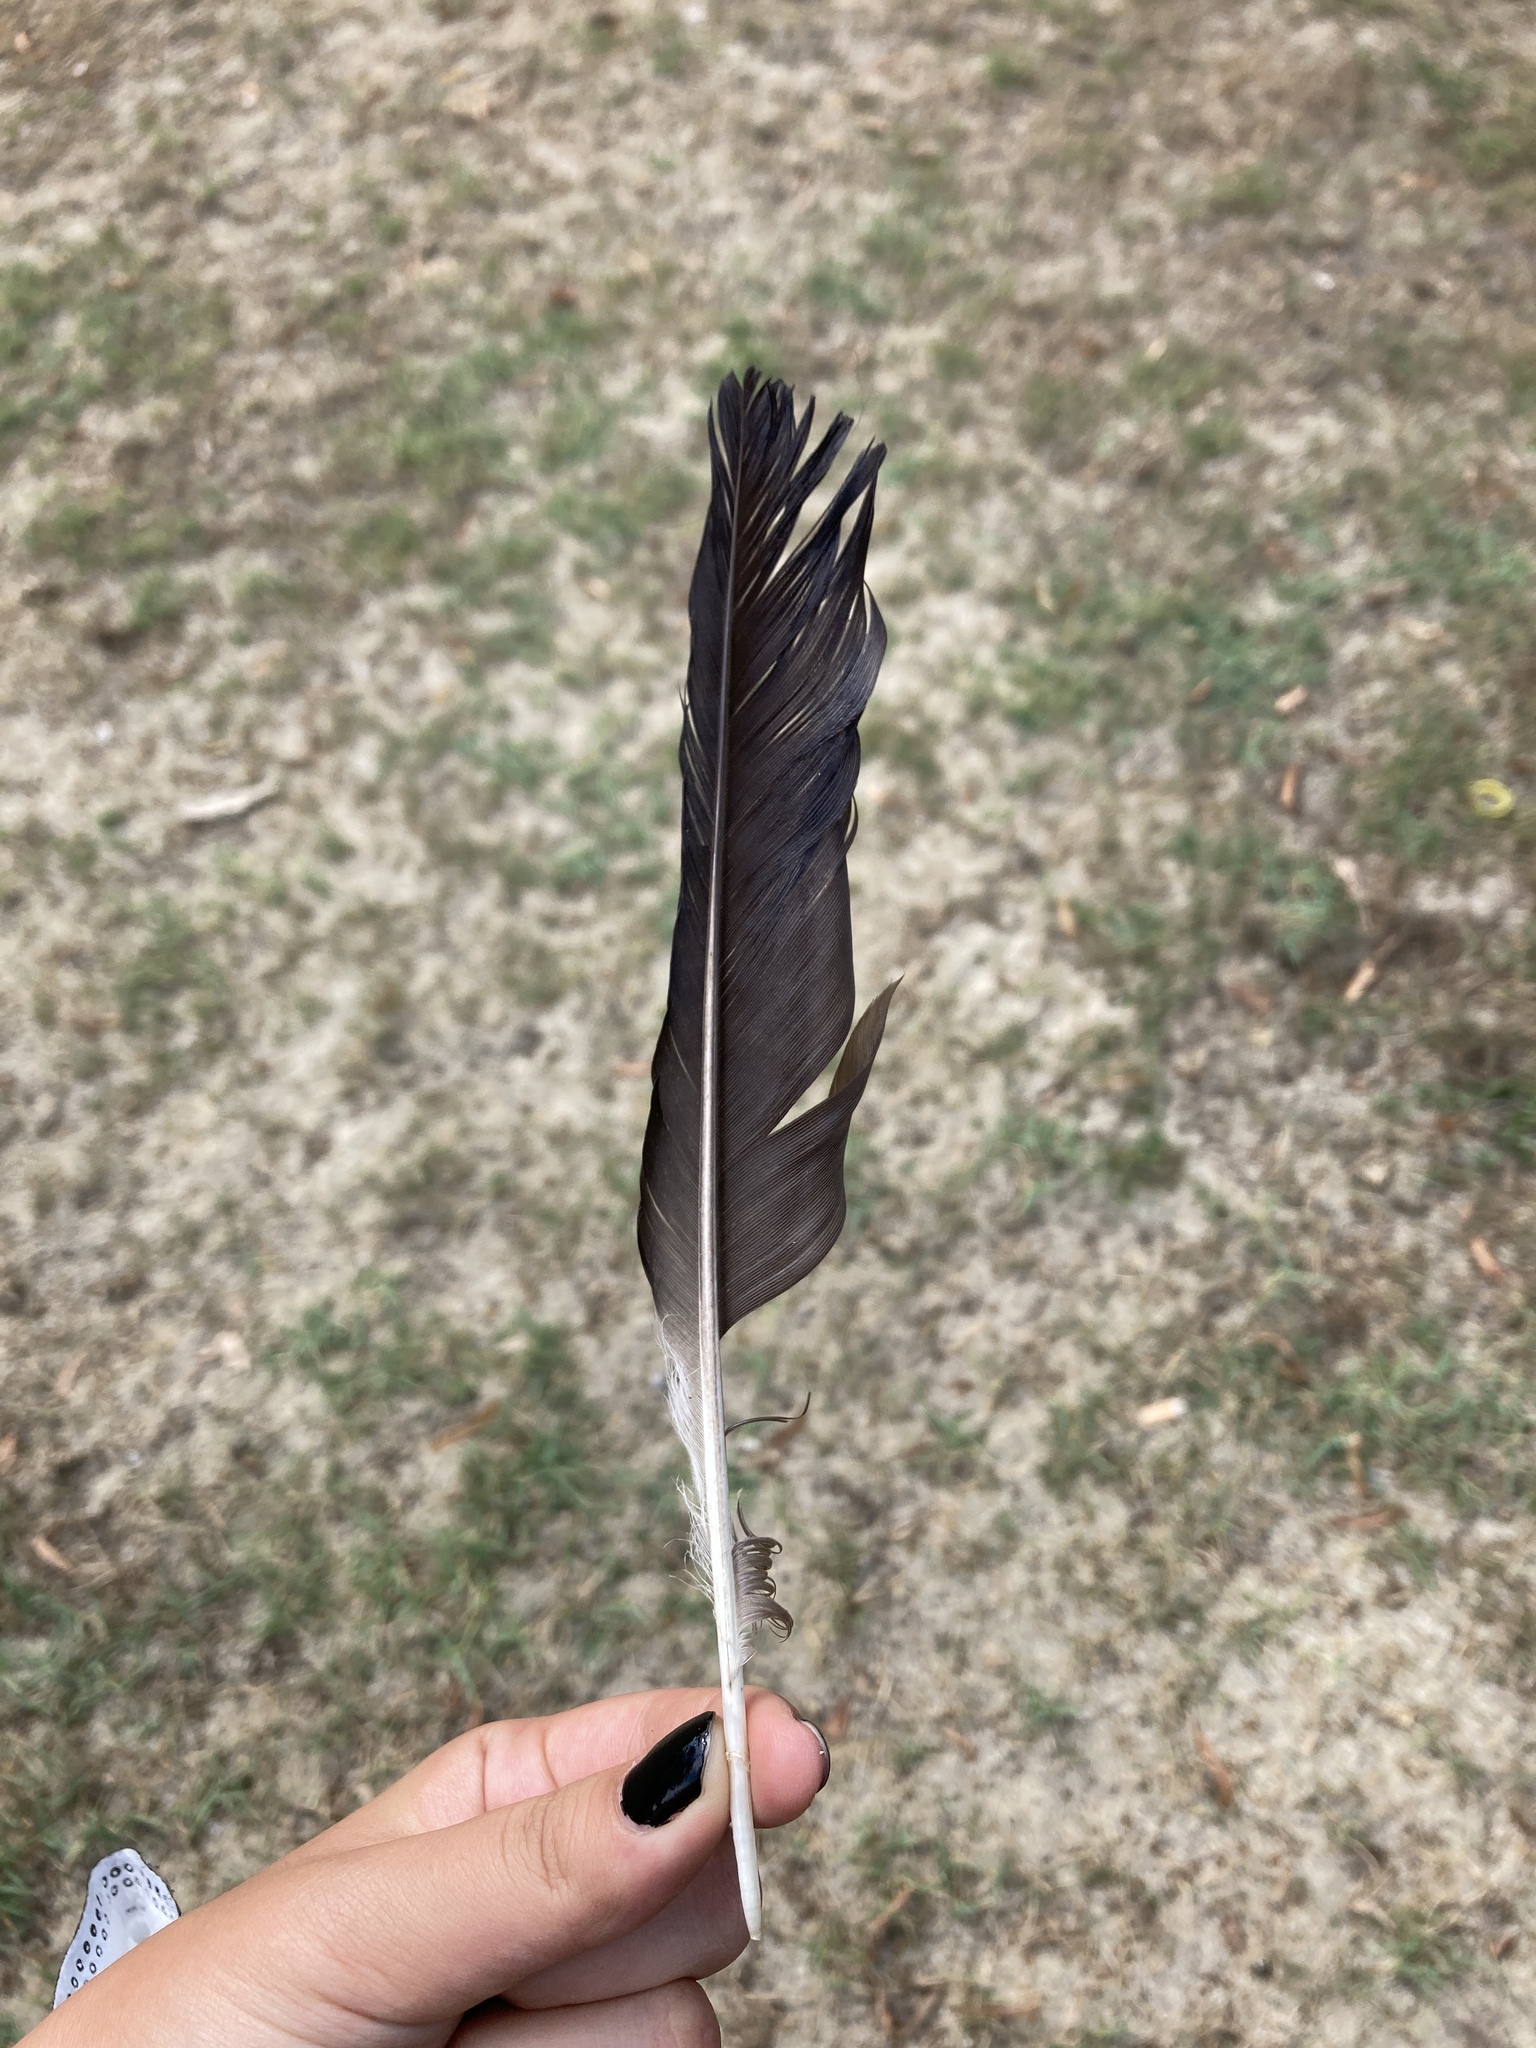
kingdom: Animalia
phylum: Chordata
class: Aves
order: Passeriformes
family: Corvidae
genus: Corvus
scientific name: Corvus cornix
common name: Hooded crow
